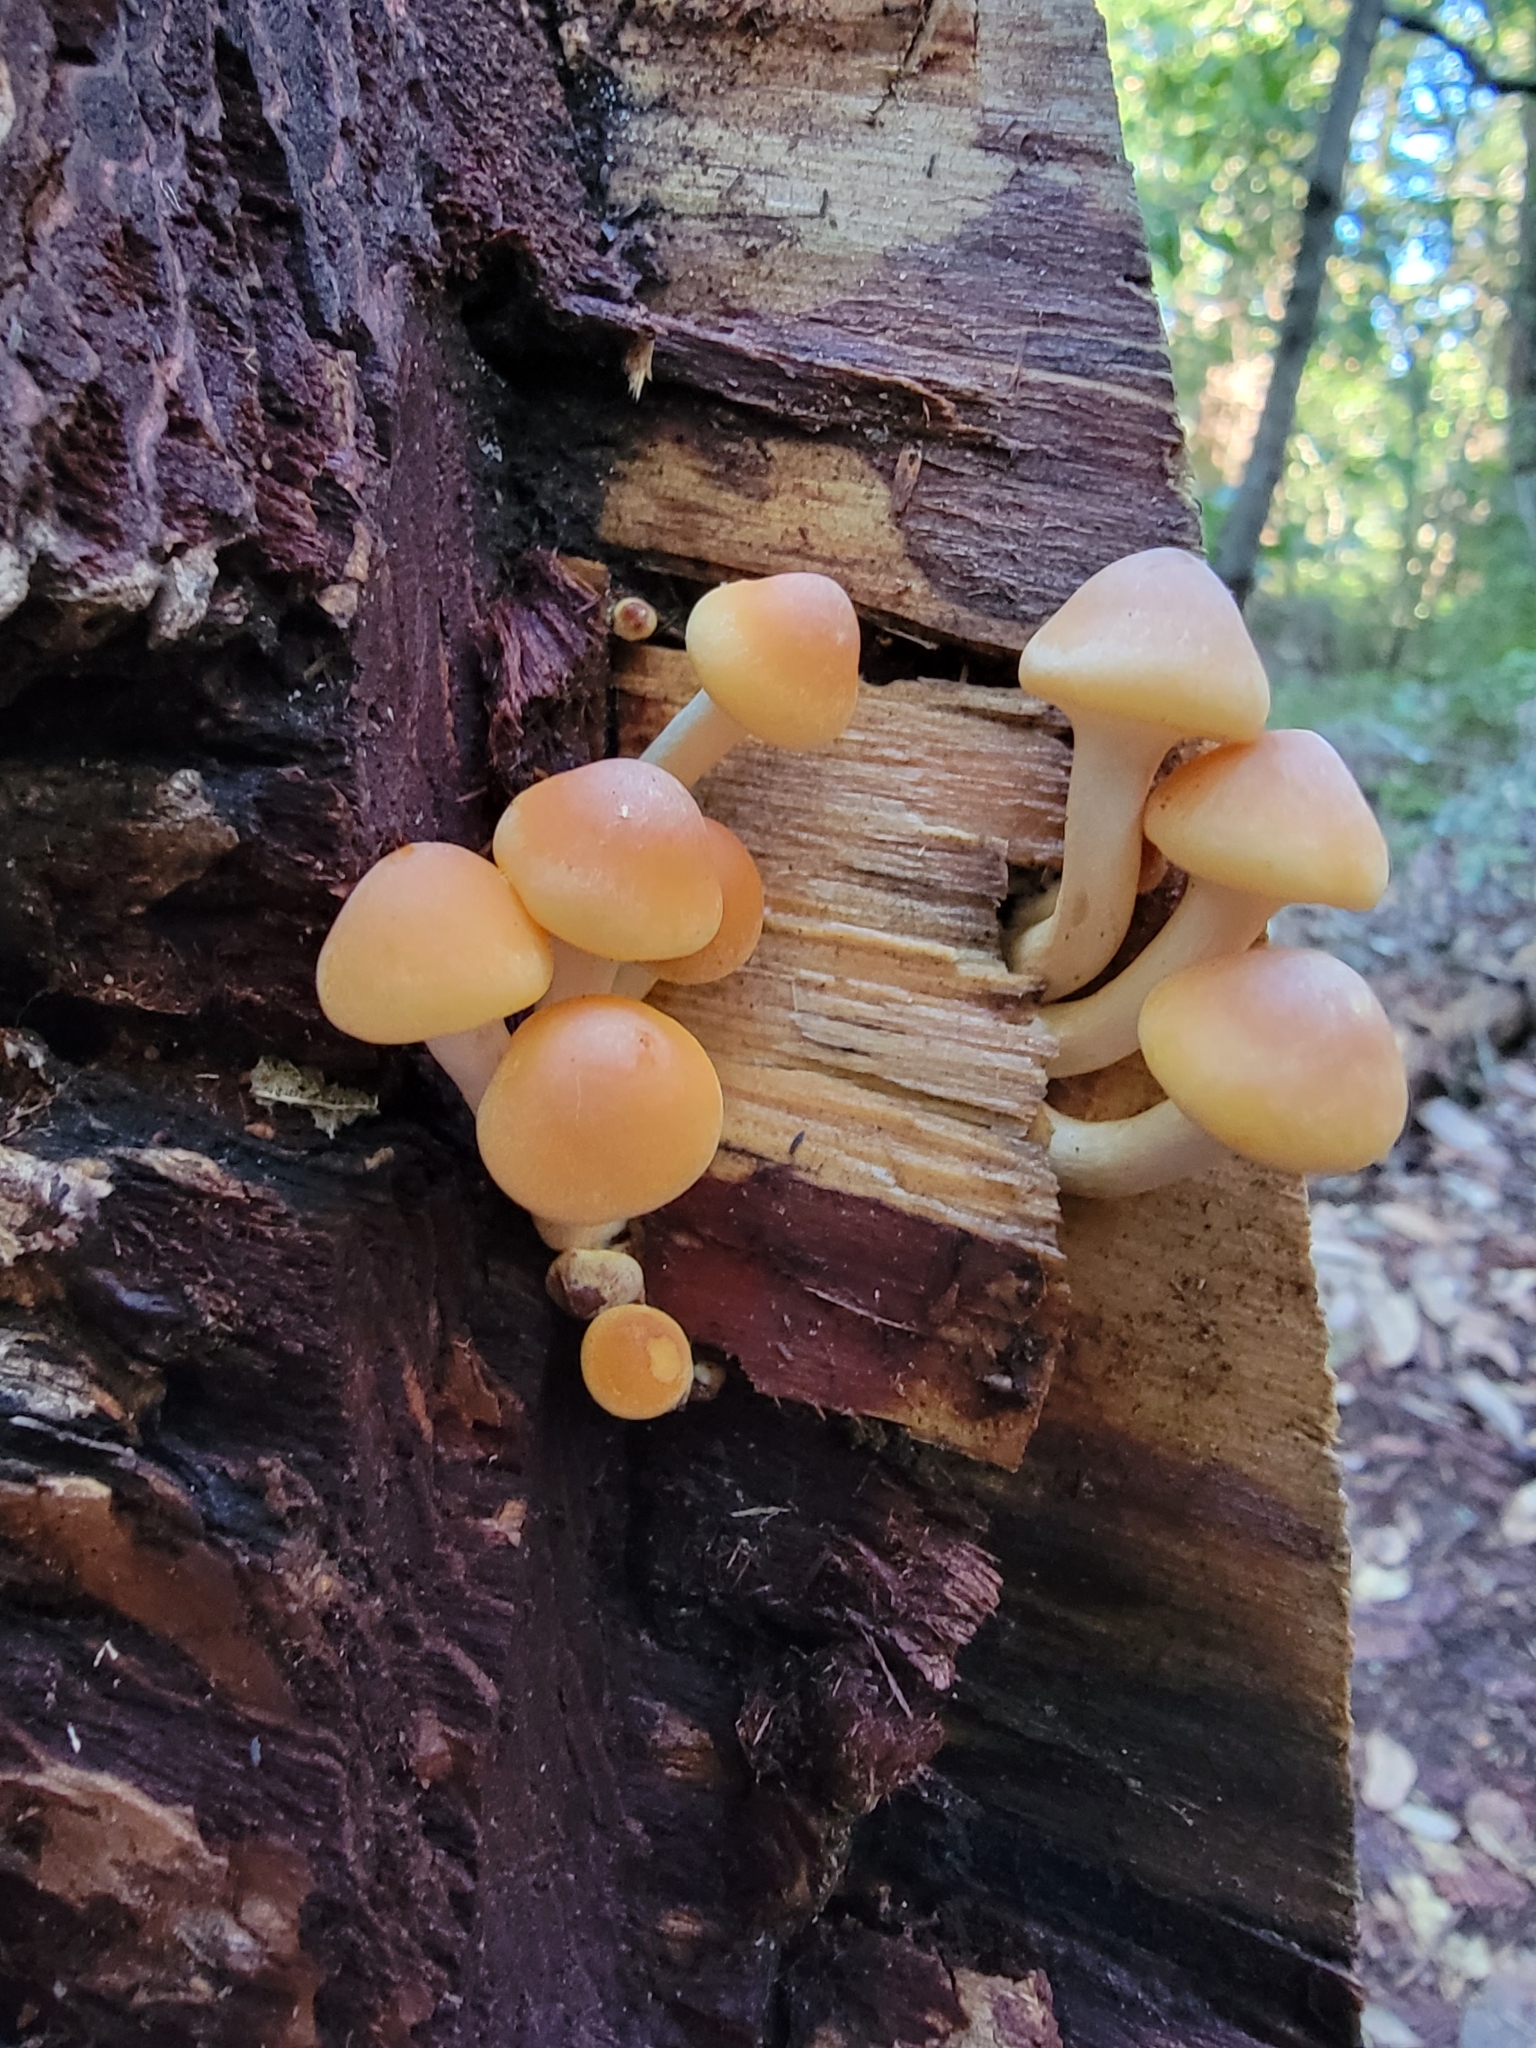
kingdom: Fungi
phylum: Basidiomycota
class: Agaricomycetes
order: Agaricales
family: Strophariaceae
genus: Hypholoma
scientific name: Hypholoma capnoides
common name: Conifer tuft
